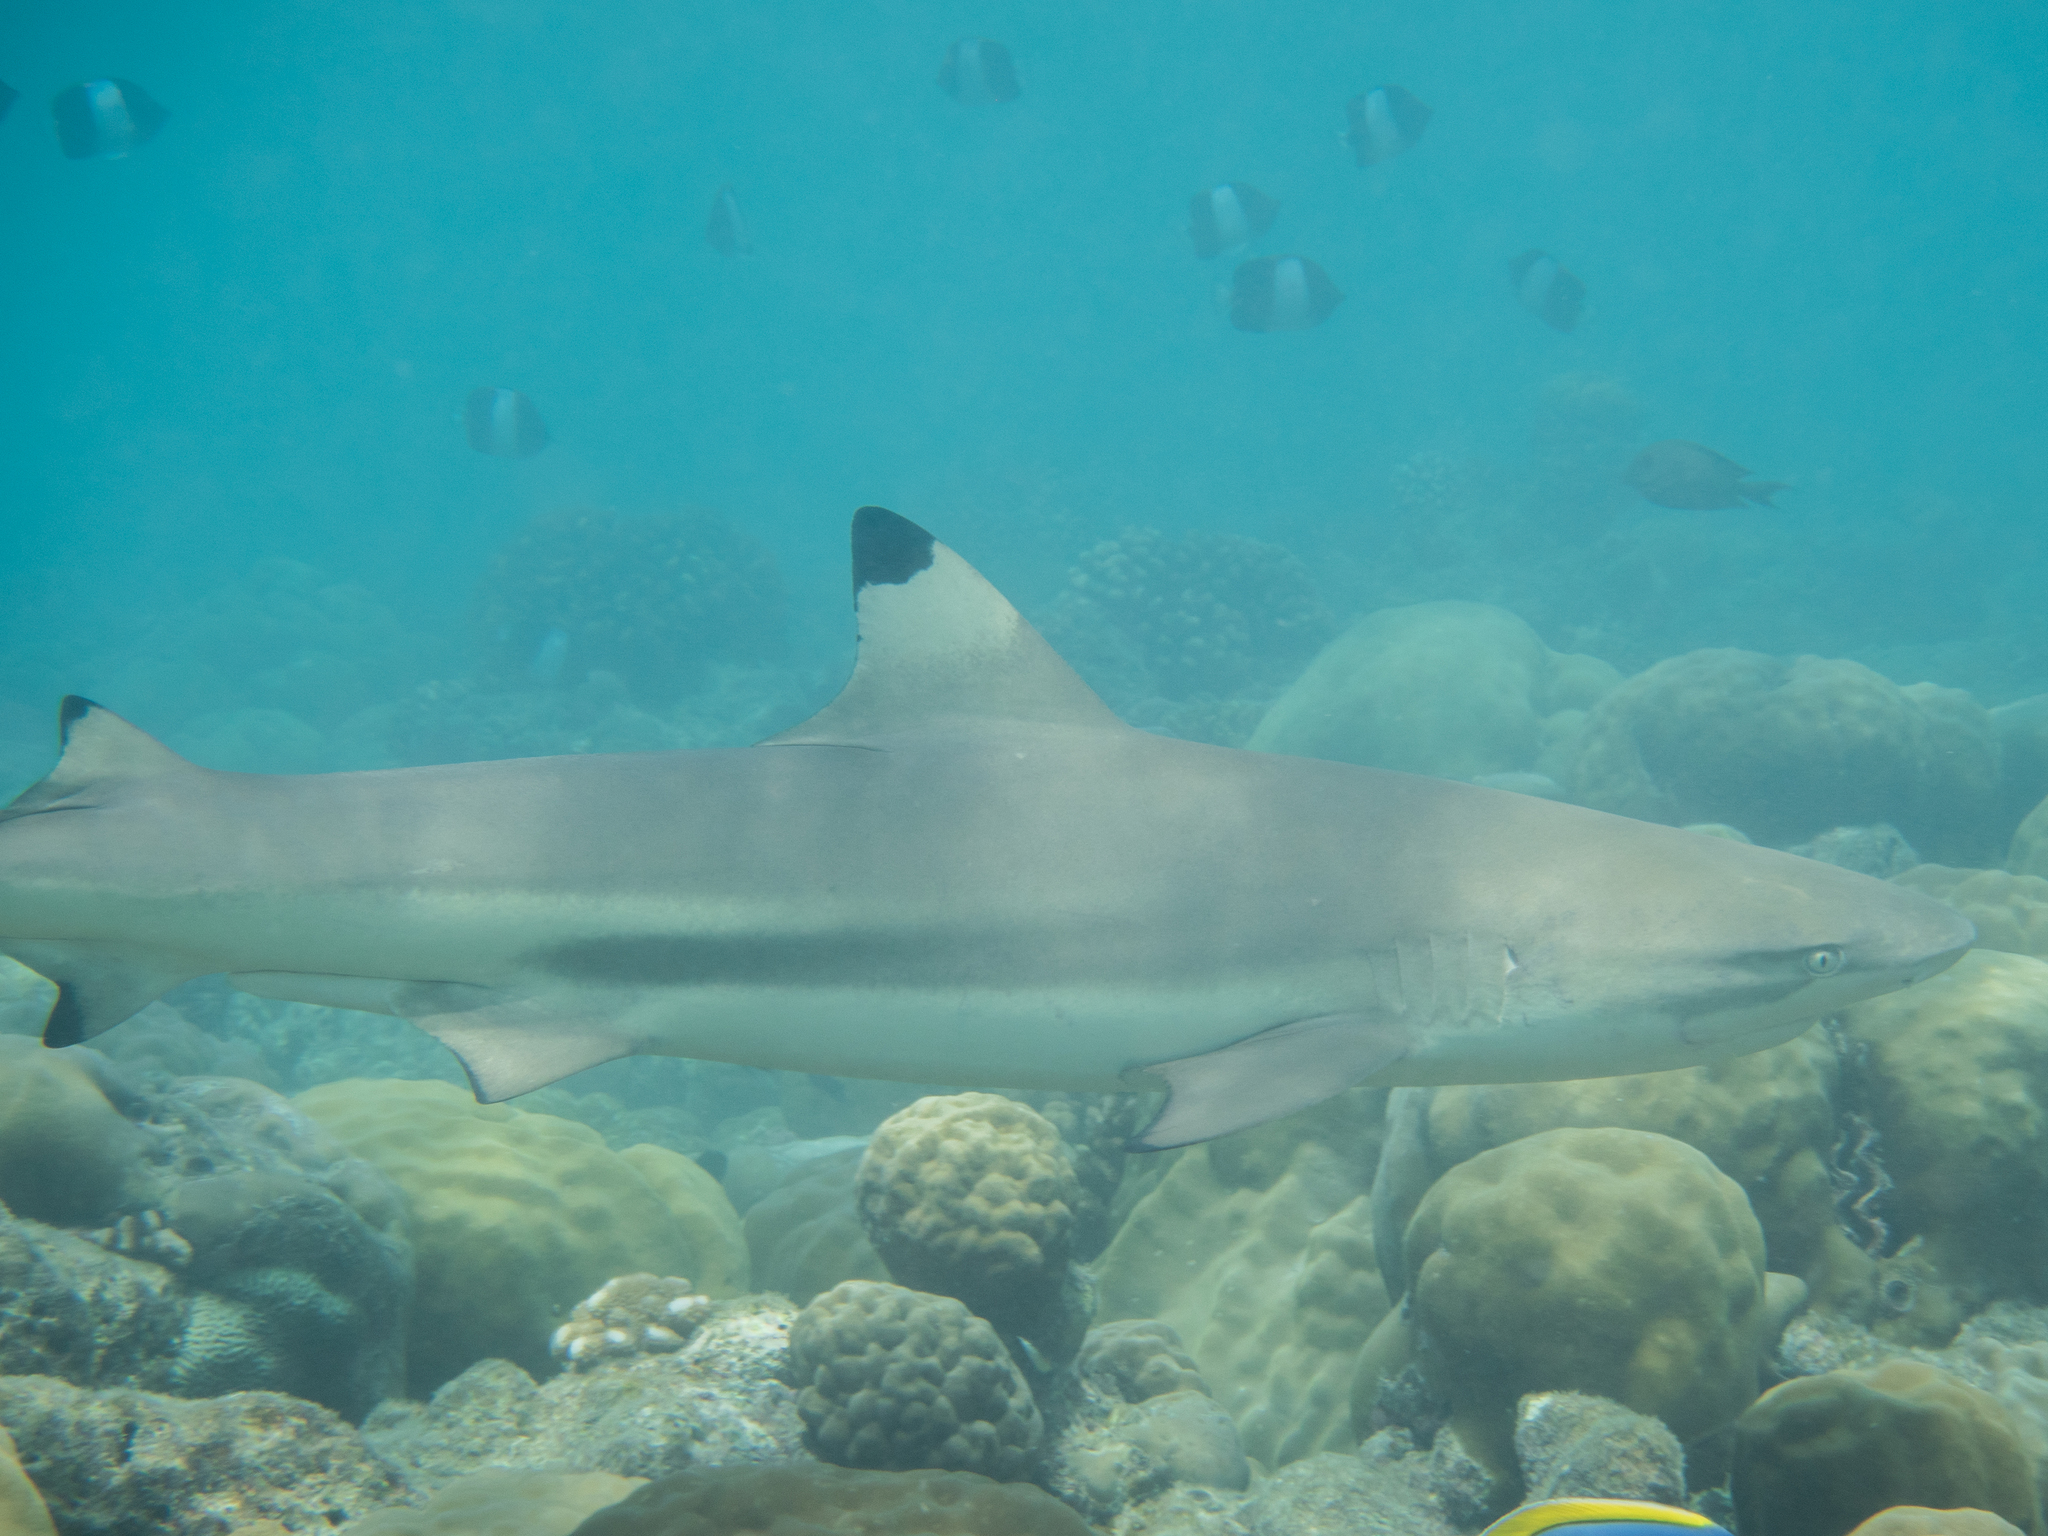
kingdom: Animalia
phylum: Chordata
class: Elasmobranchii
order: Carcharhiniformes
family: Carcharhinidae
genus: Carcharhinus
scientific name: Carcharhinus melanopterus
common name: Blacktip reef shark
